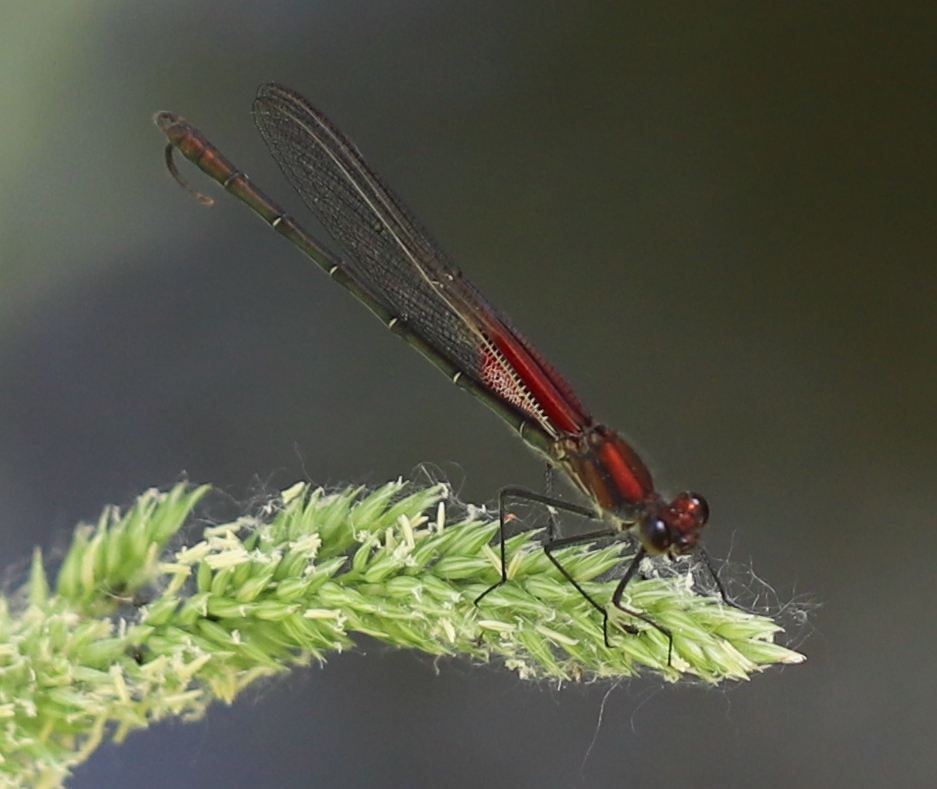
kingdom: Animalia
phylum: Arthropoda
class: Insecta
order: Odonata
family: Calopterygidae
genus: Hetaerina
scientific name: Hetaerina americana
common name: American rubyspot
